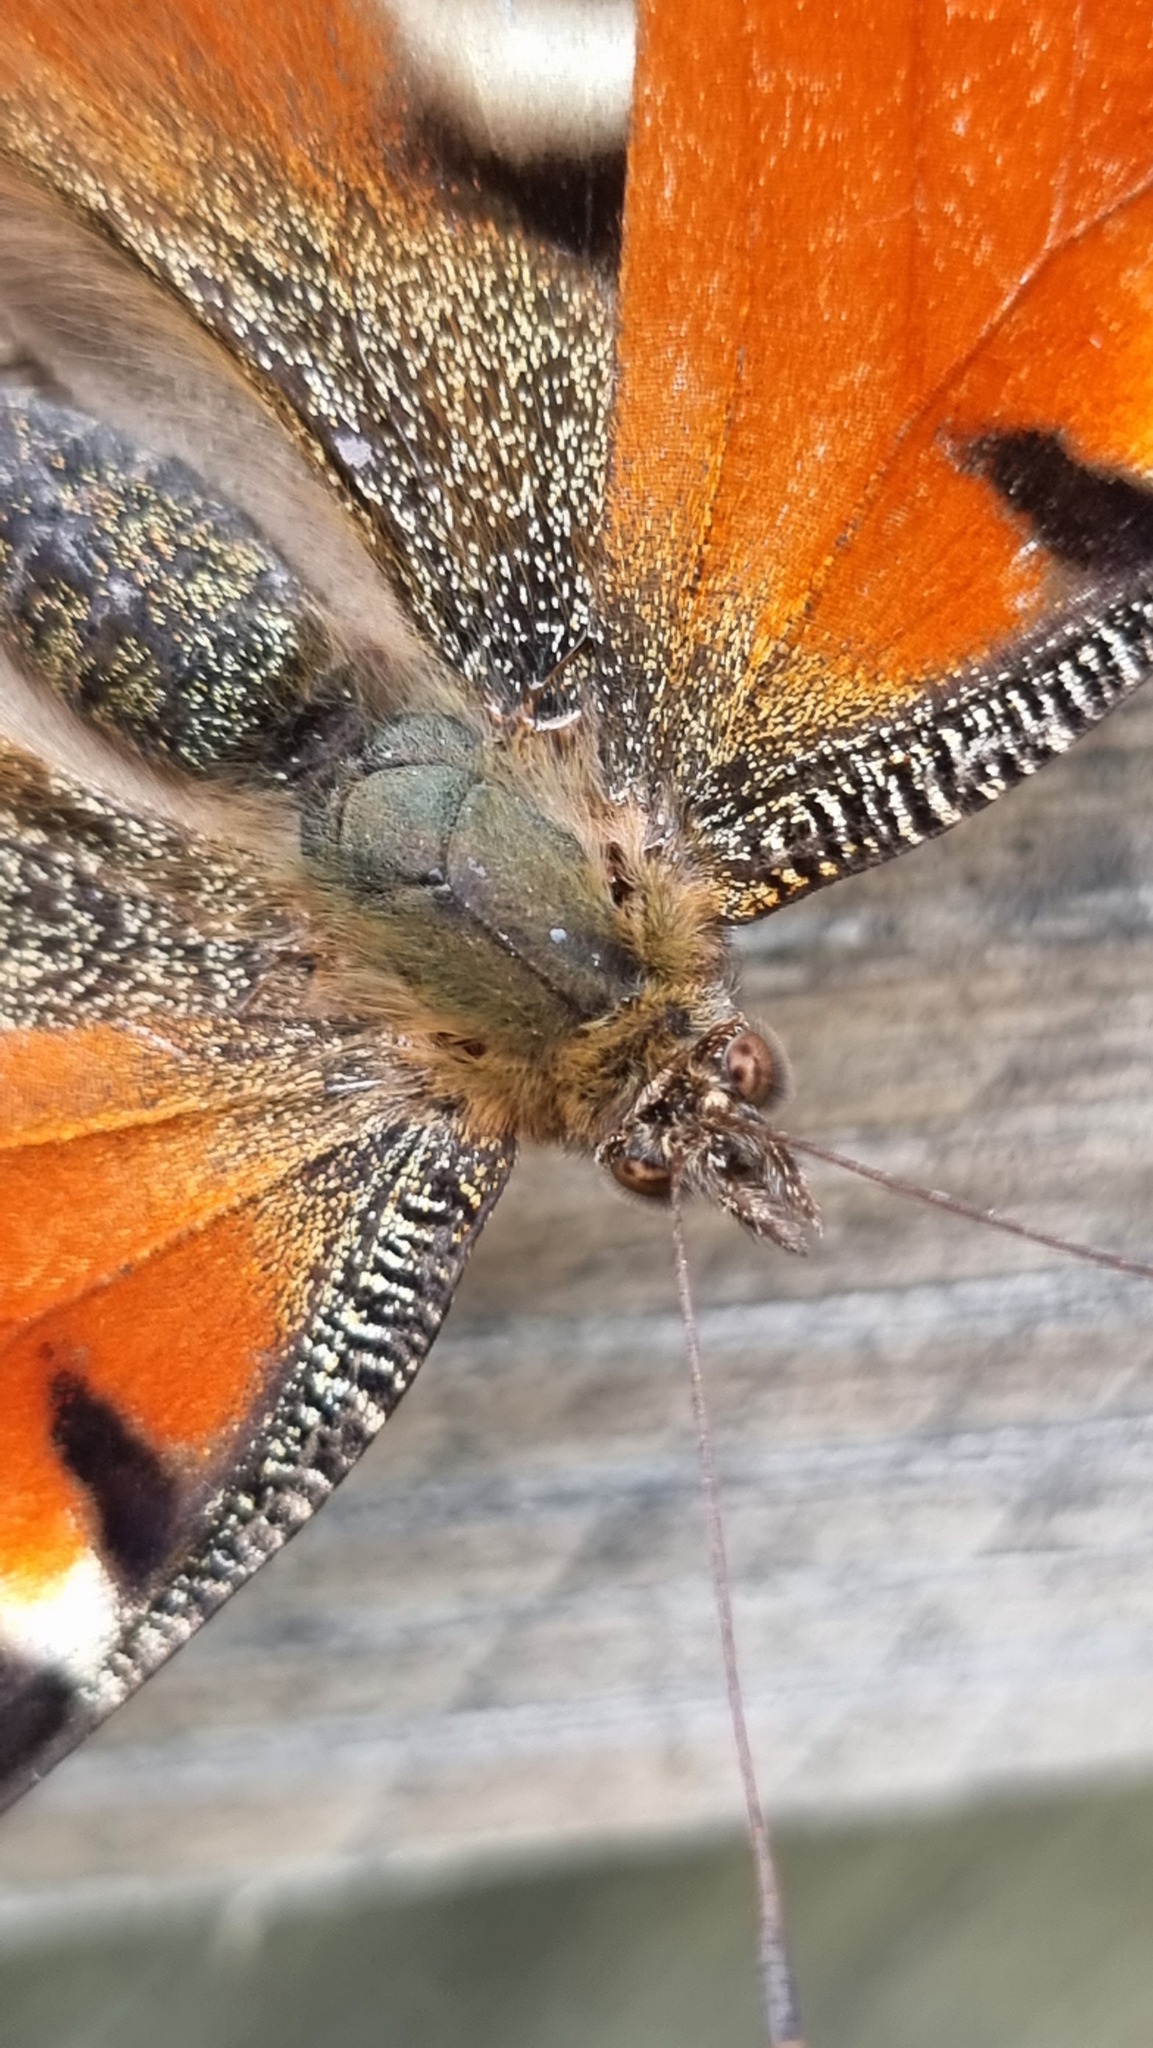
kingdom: Animalia
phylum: Arthropoda
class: Insecta
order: Lepidoptera
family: Nymphalidae
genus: Aglais
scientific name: Aglais io
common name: Peacock
